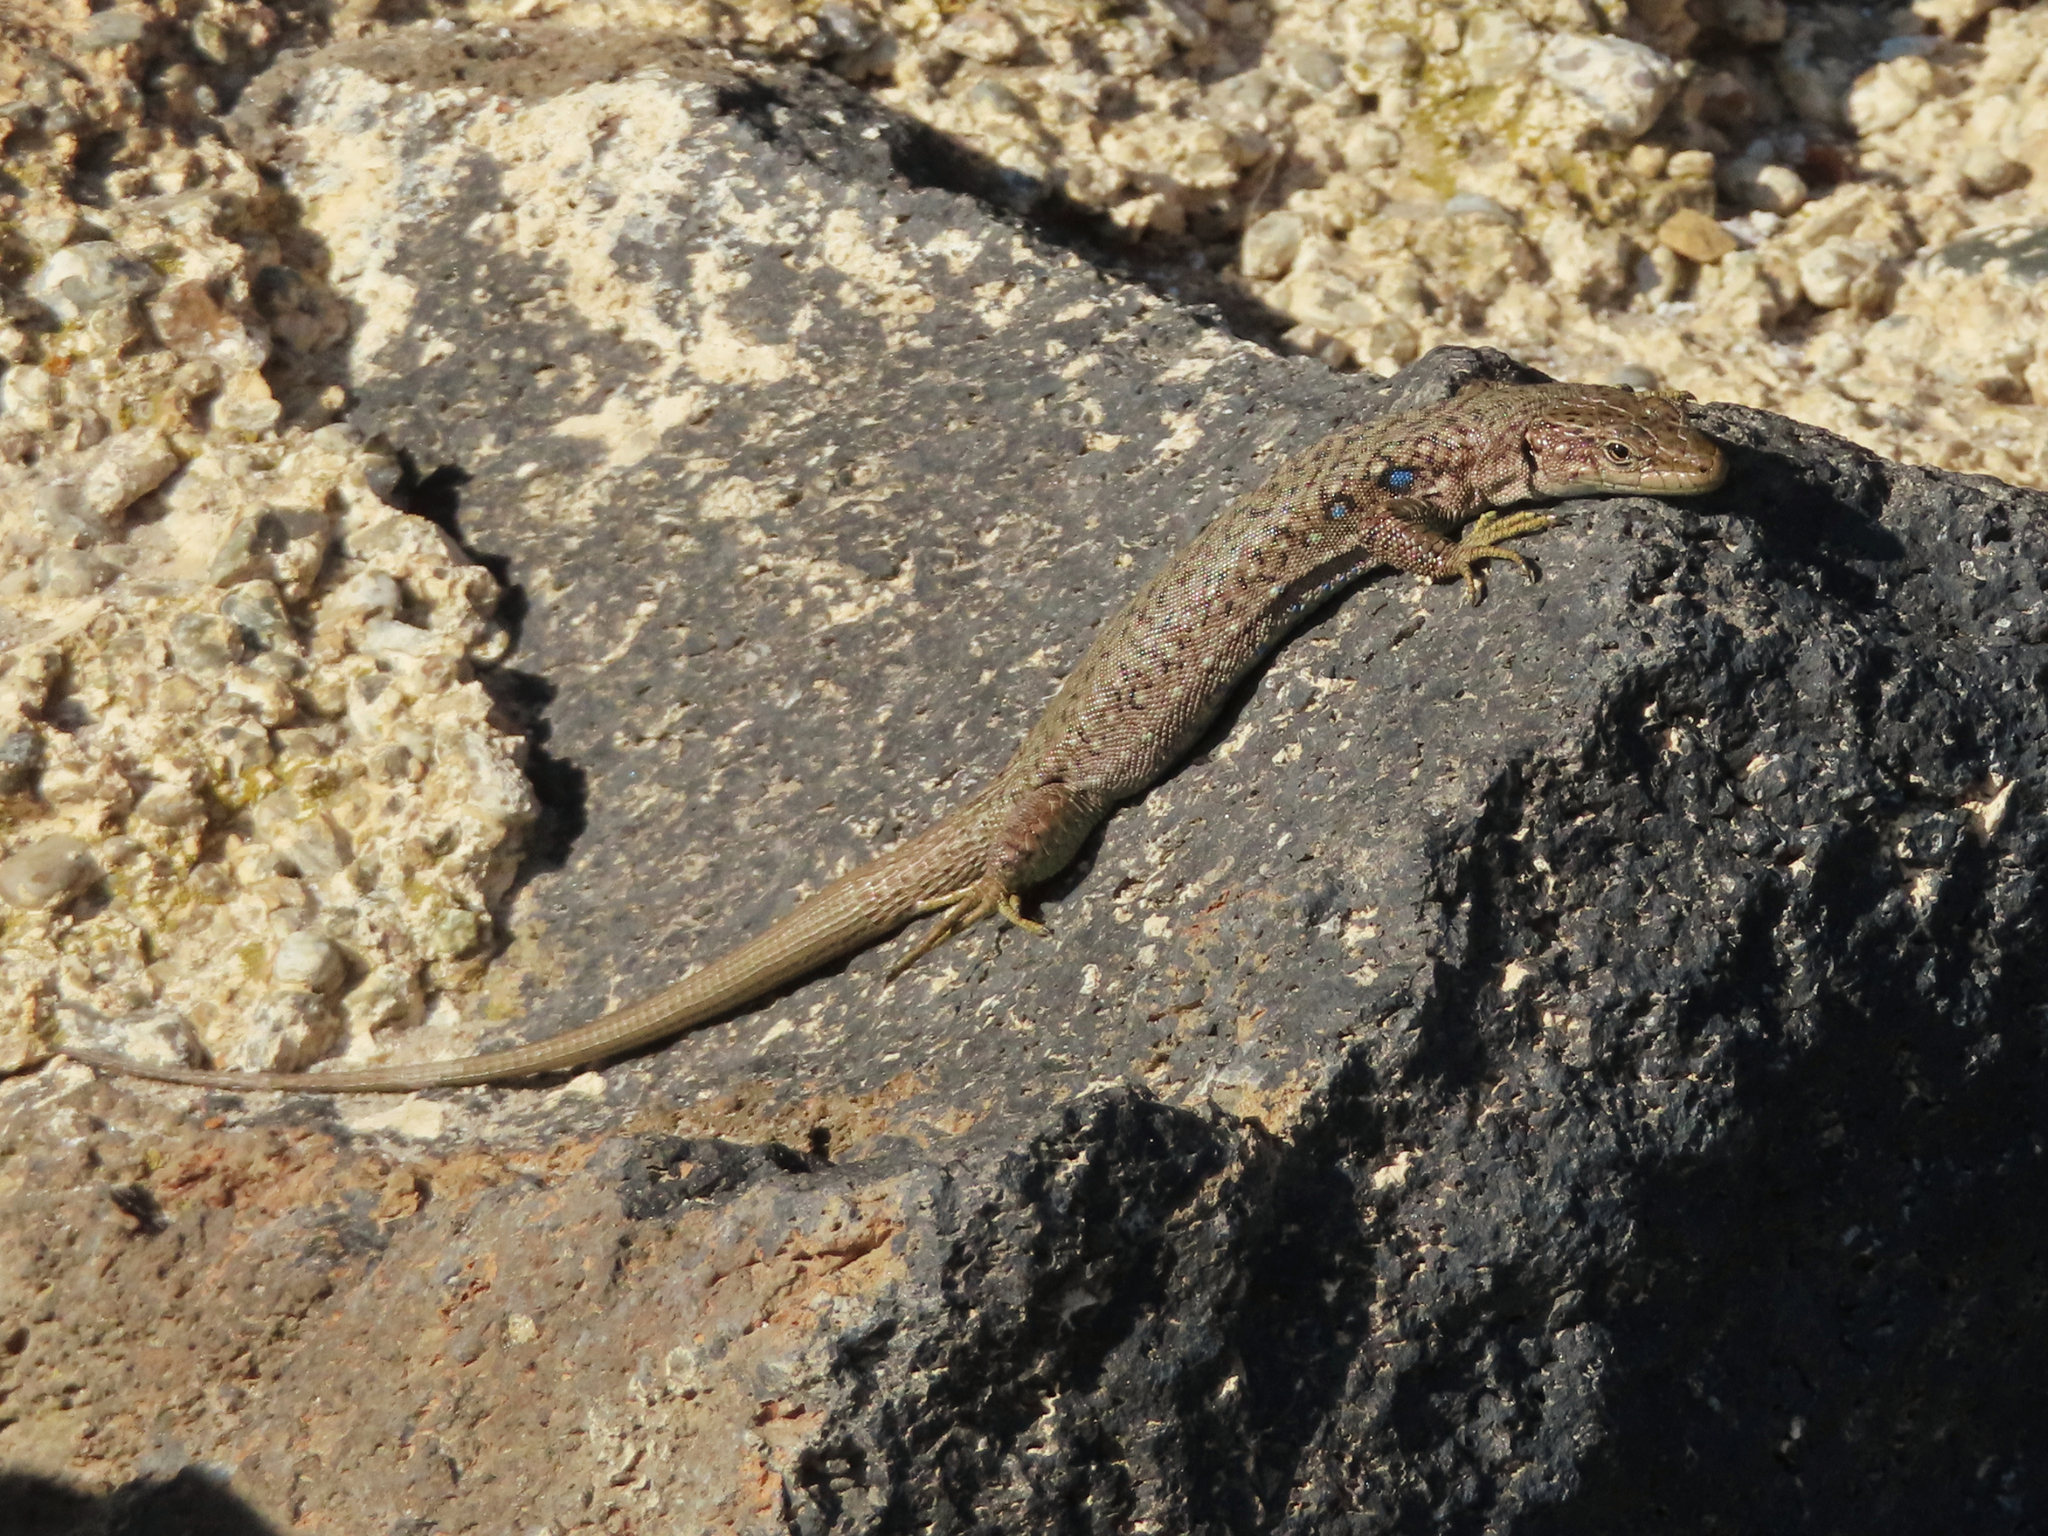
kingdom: Animalia
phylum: Chordata
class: Squamata
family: Lacertidae
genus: Darevskia
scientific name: Darevskia unisexualis
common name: Unisexual lizard
